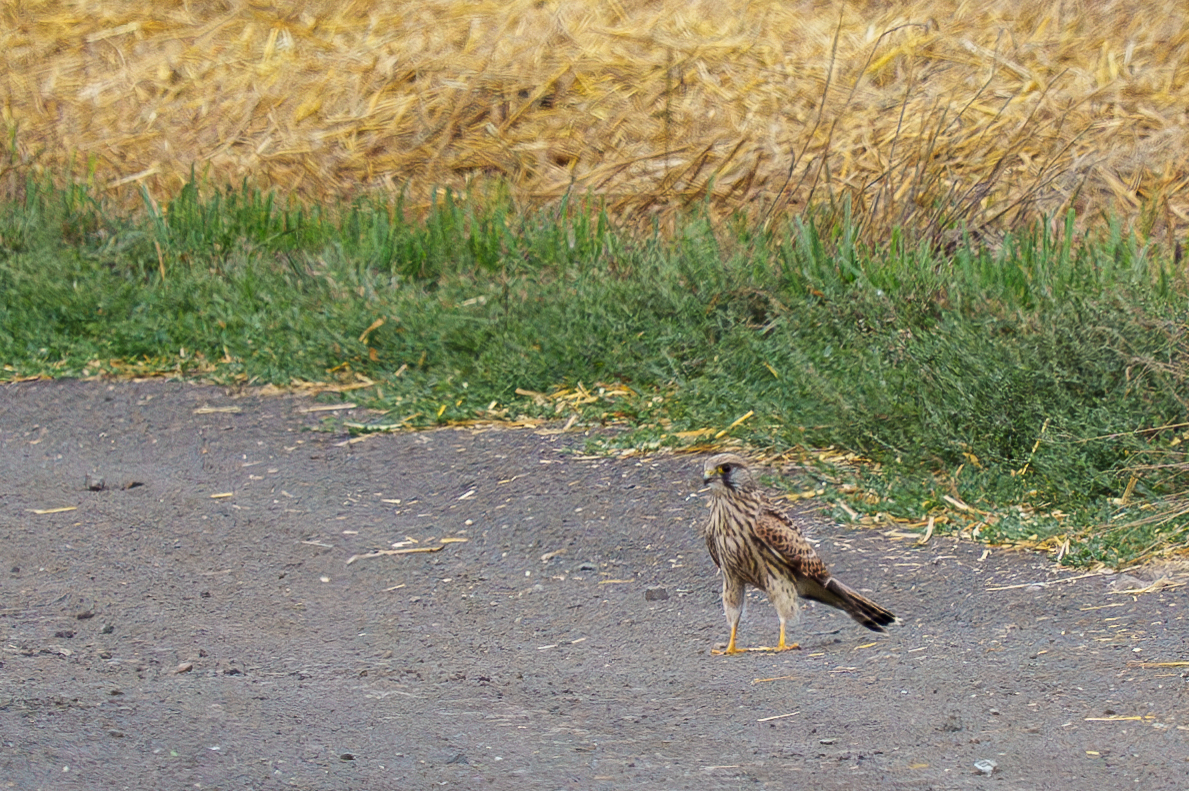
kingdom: Animalia
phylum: Chordata
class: Aves
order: Falconiformes
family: Falconidae
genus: Falco
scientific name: Falco tinnunculus
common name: Common kestrel
